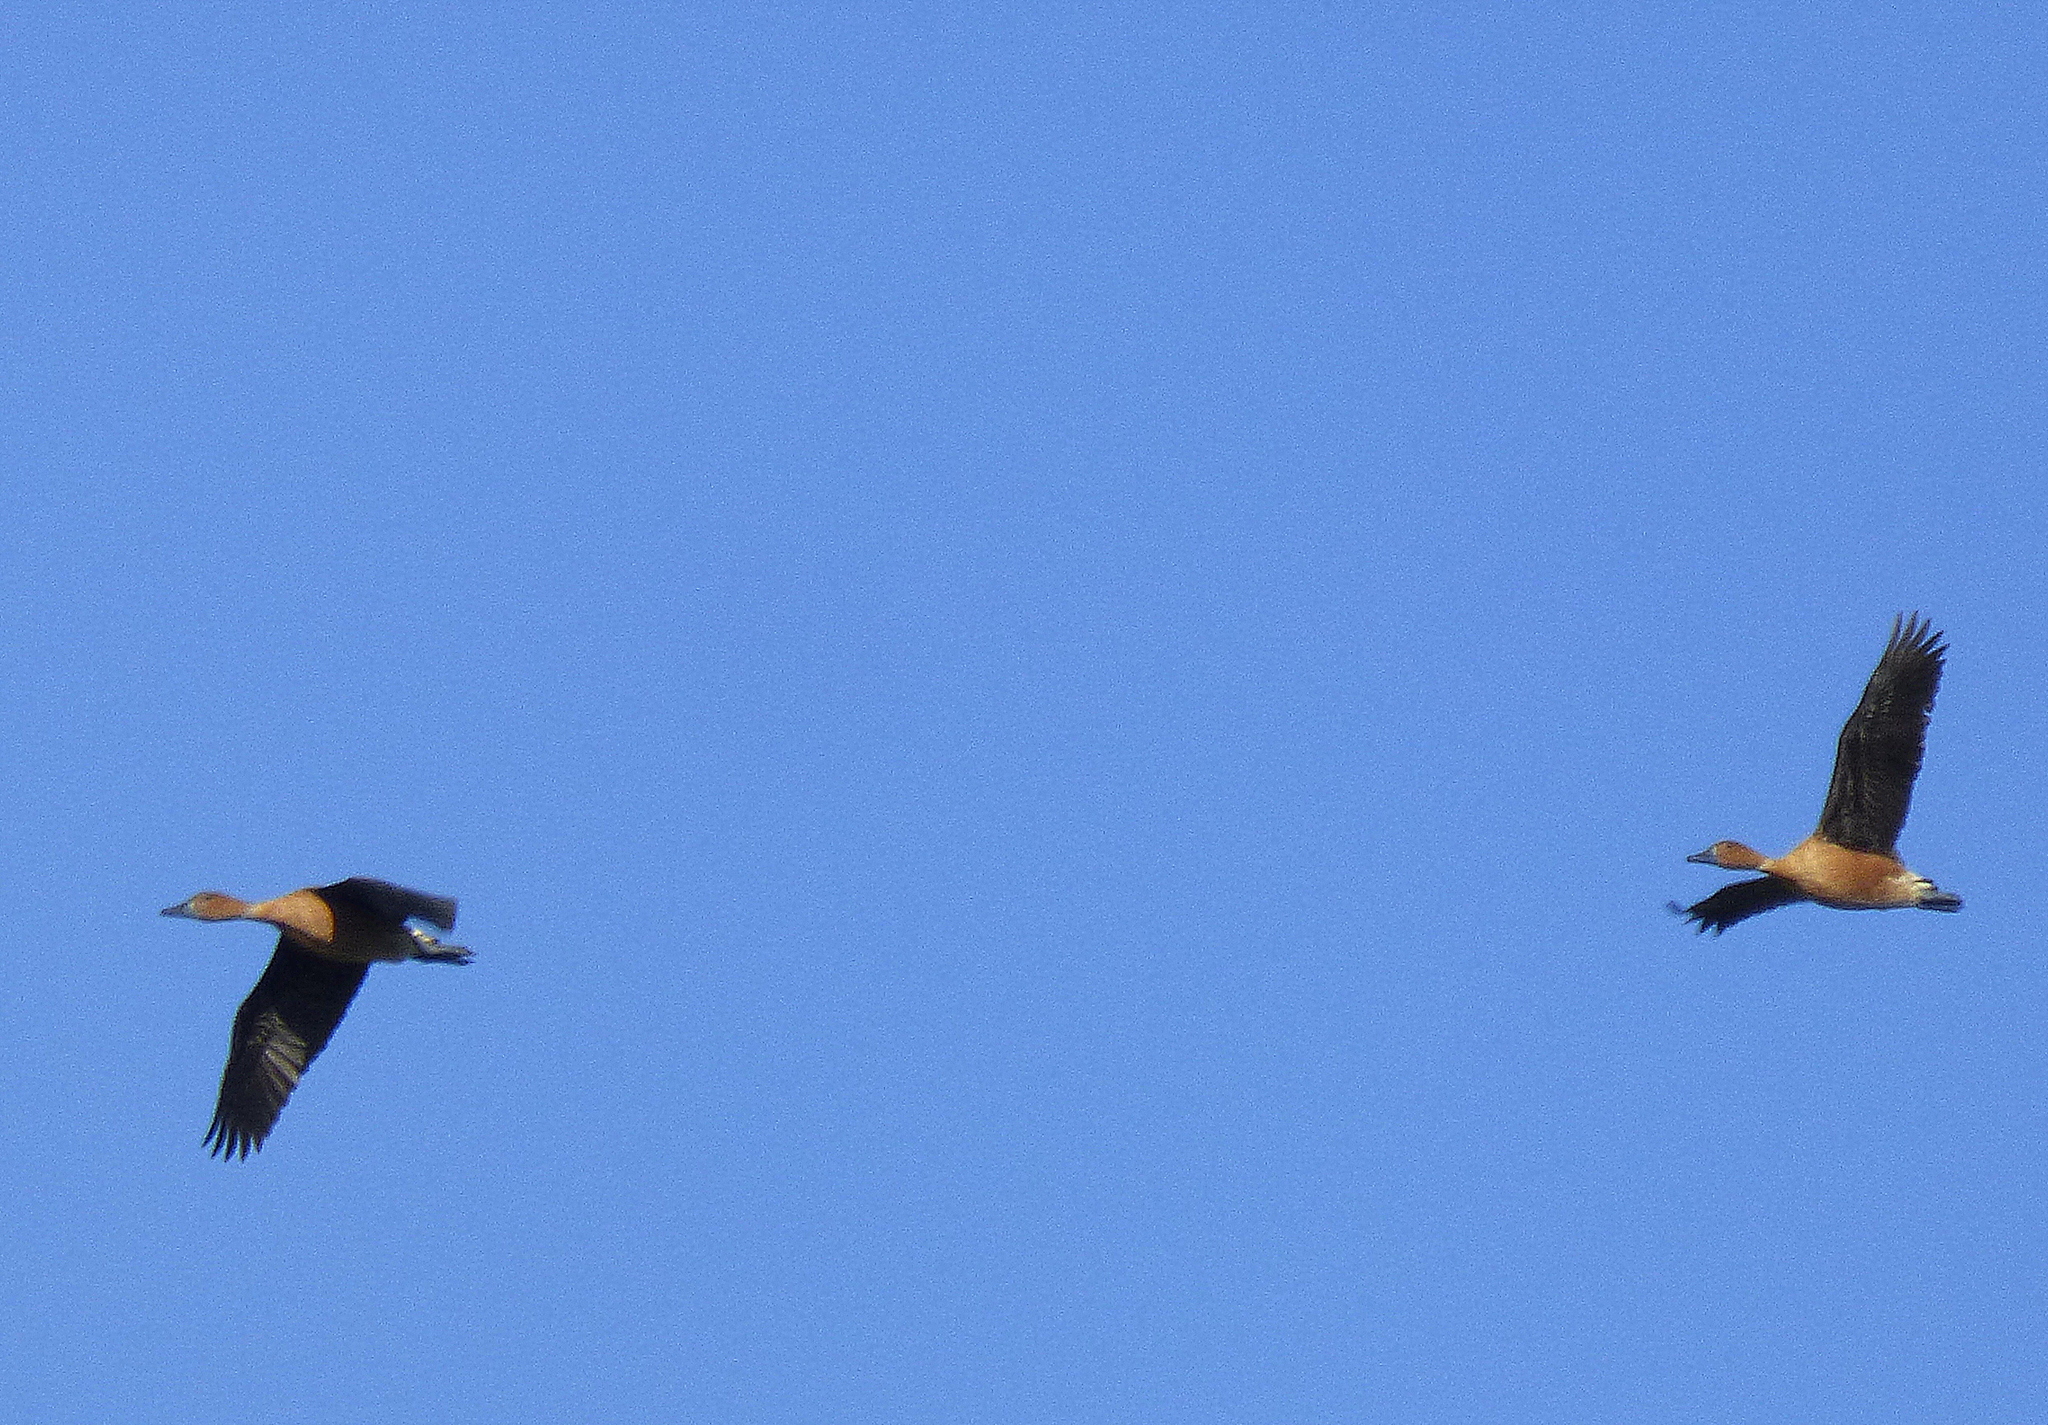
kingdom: Animalia
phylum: Chordata
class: Aves
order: Anseriformes
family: Anatidae
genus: Dendrocygna
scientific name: Dendrocygna bicolor
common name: Fulvous whistling duck
